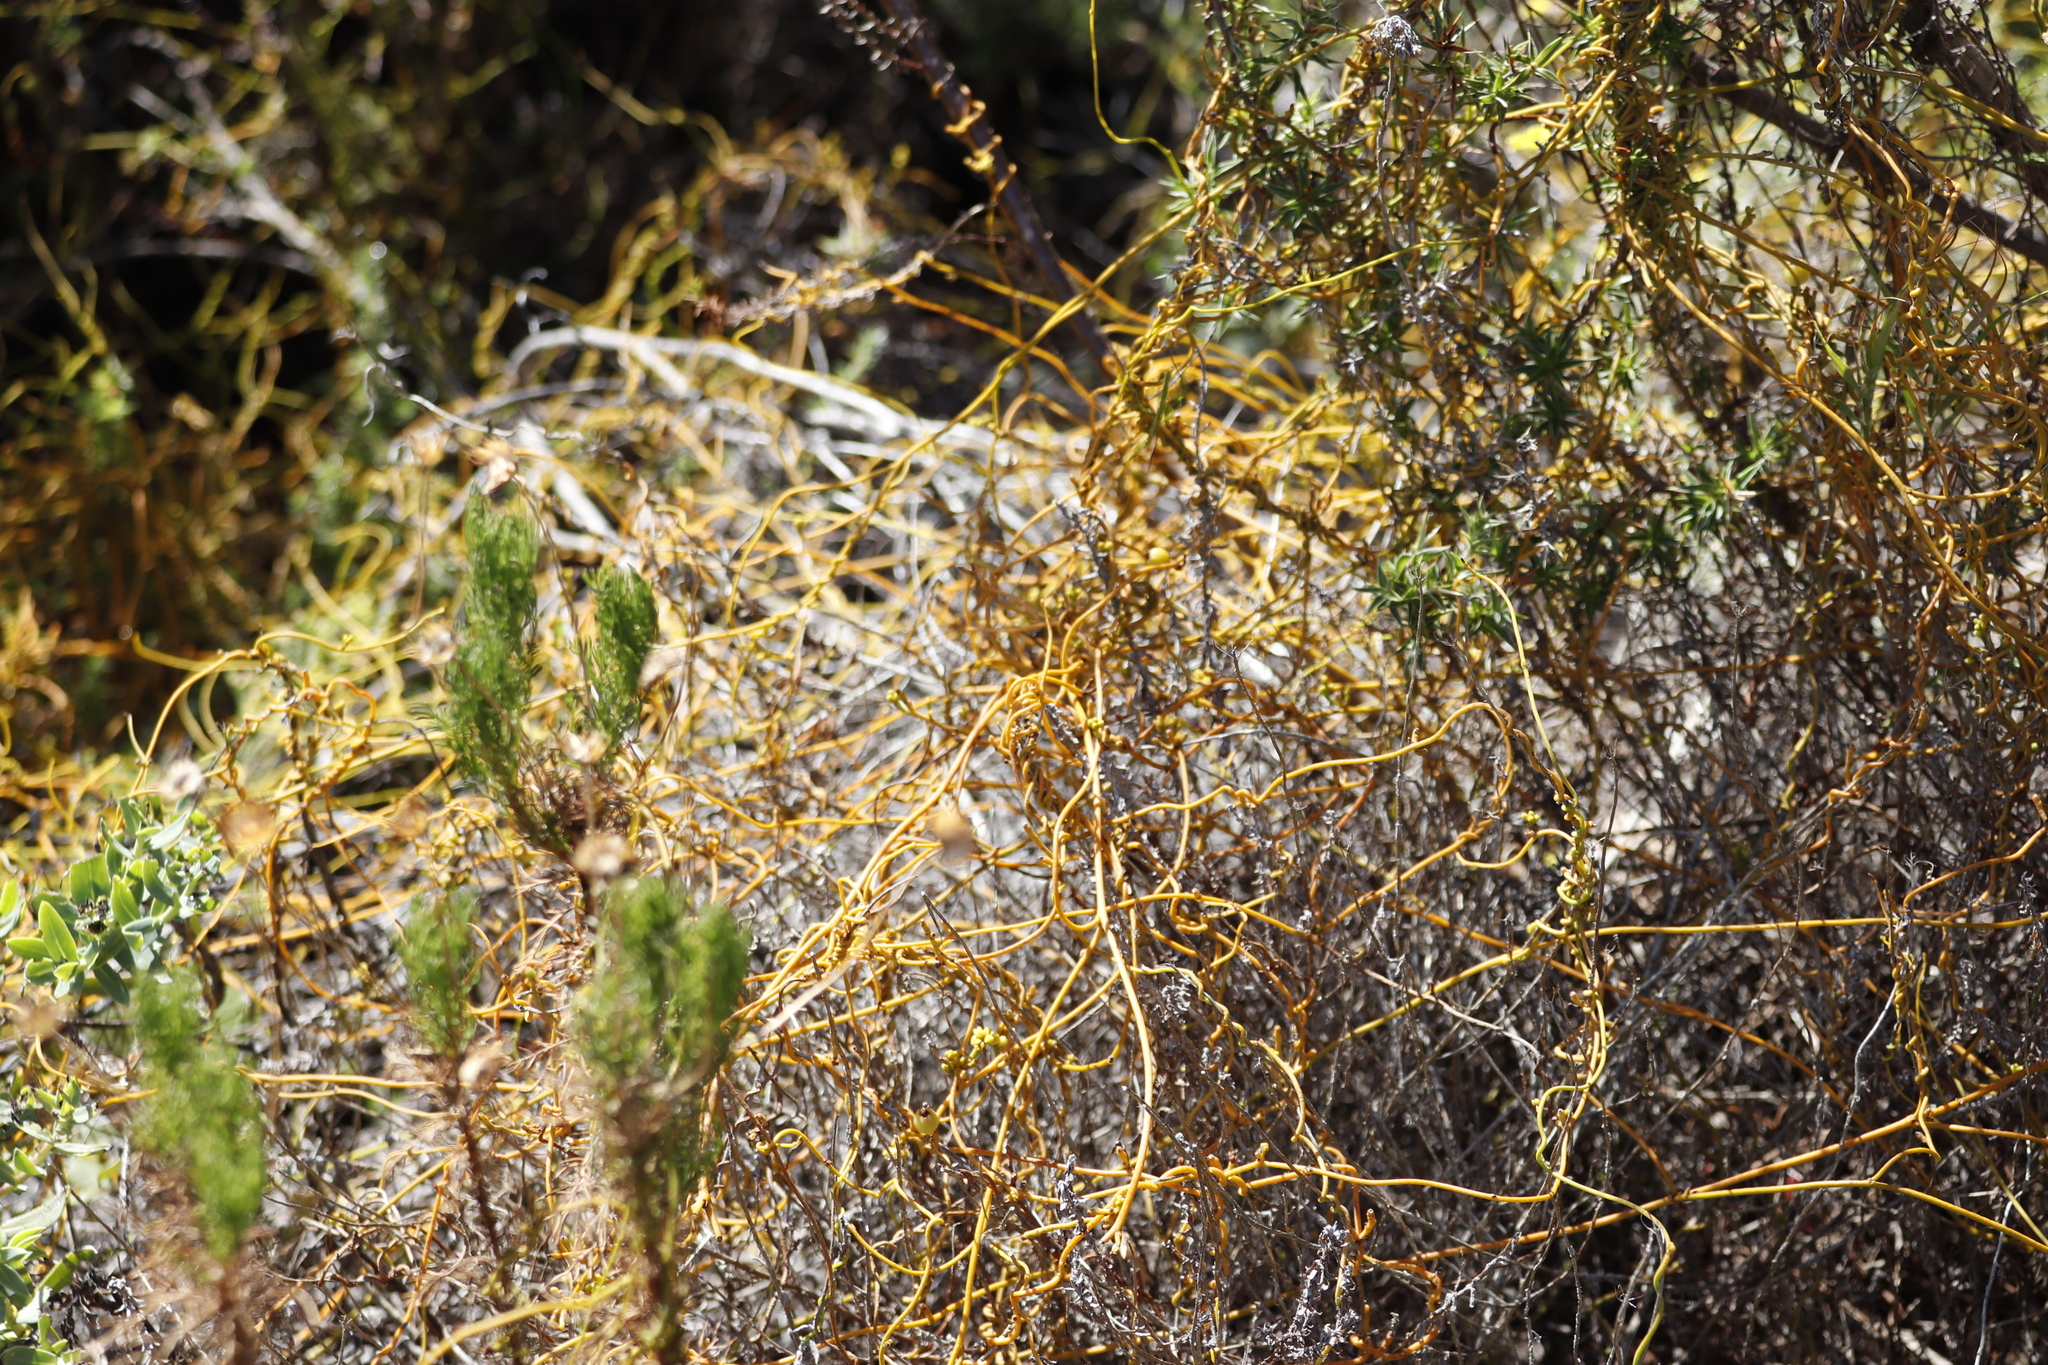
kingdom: Plantae
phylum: Tracheophyta
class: Magnoliopsida
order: Laurales
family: Lauraceae
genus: Cassytha
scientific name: Cassytha ciliolata
